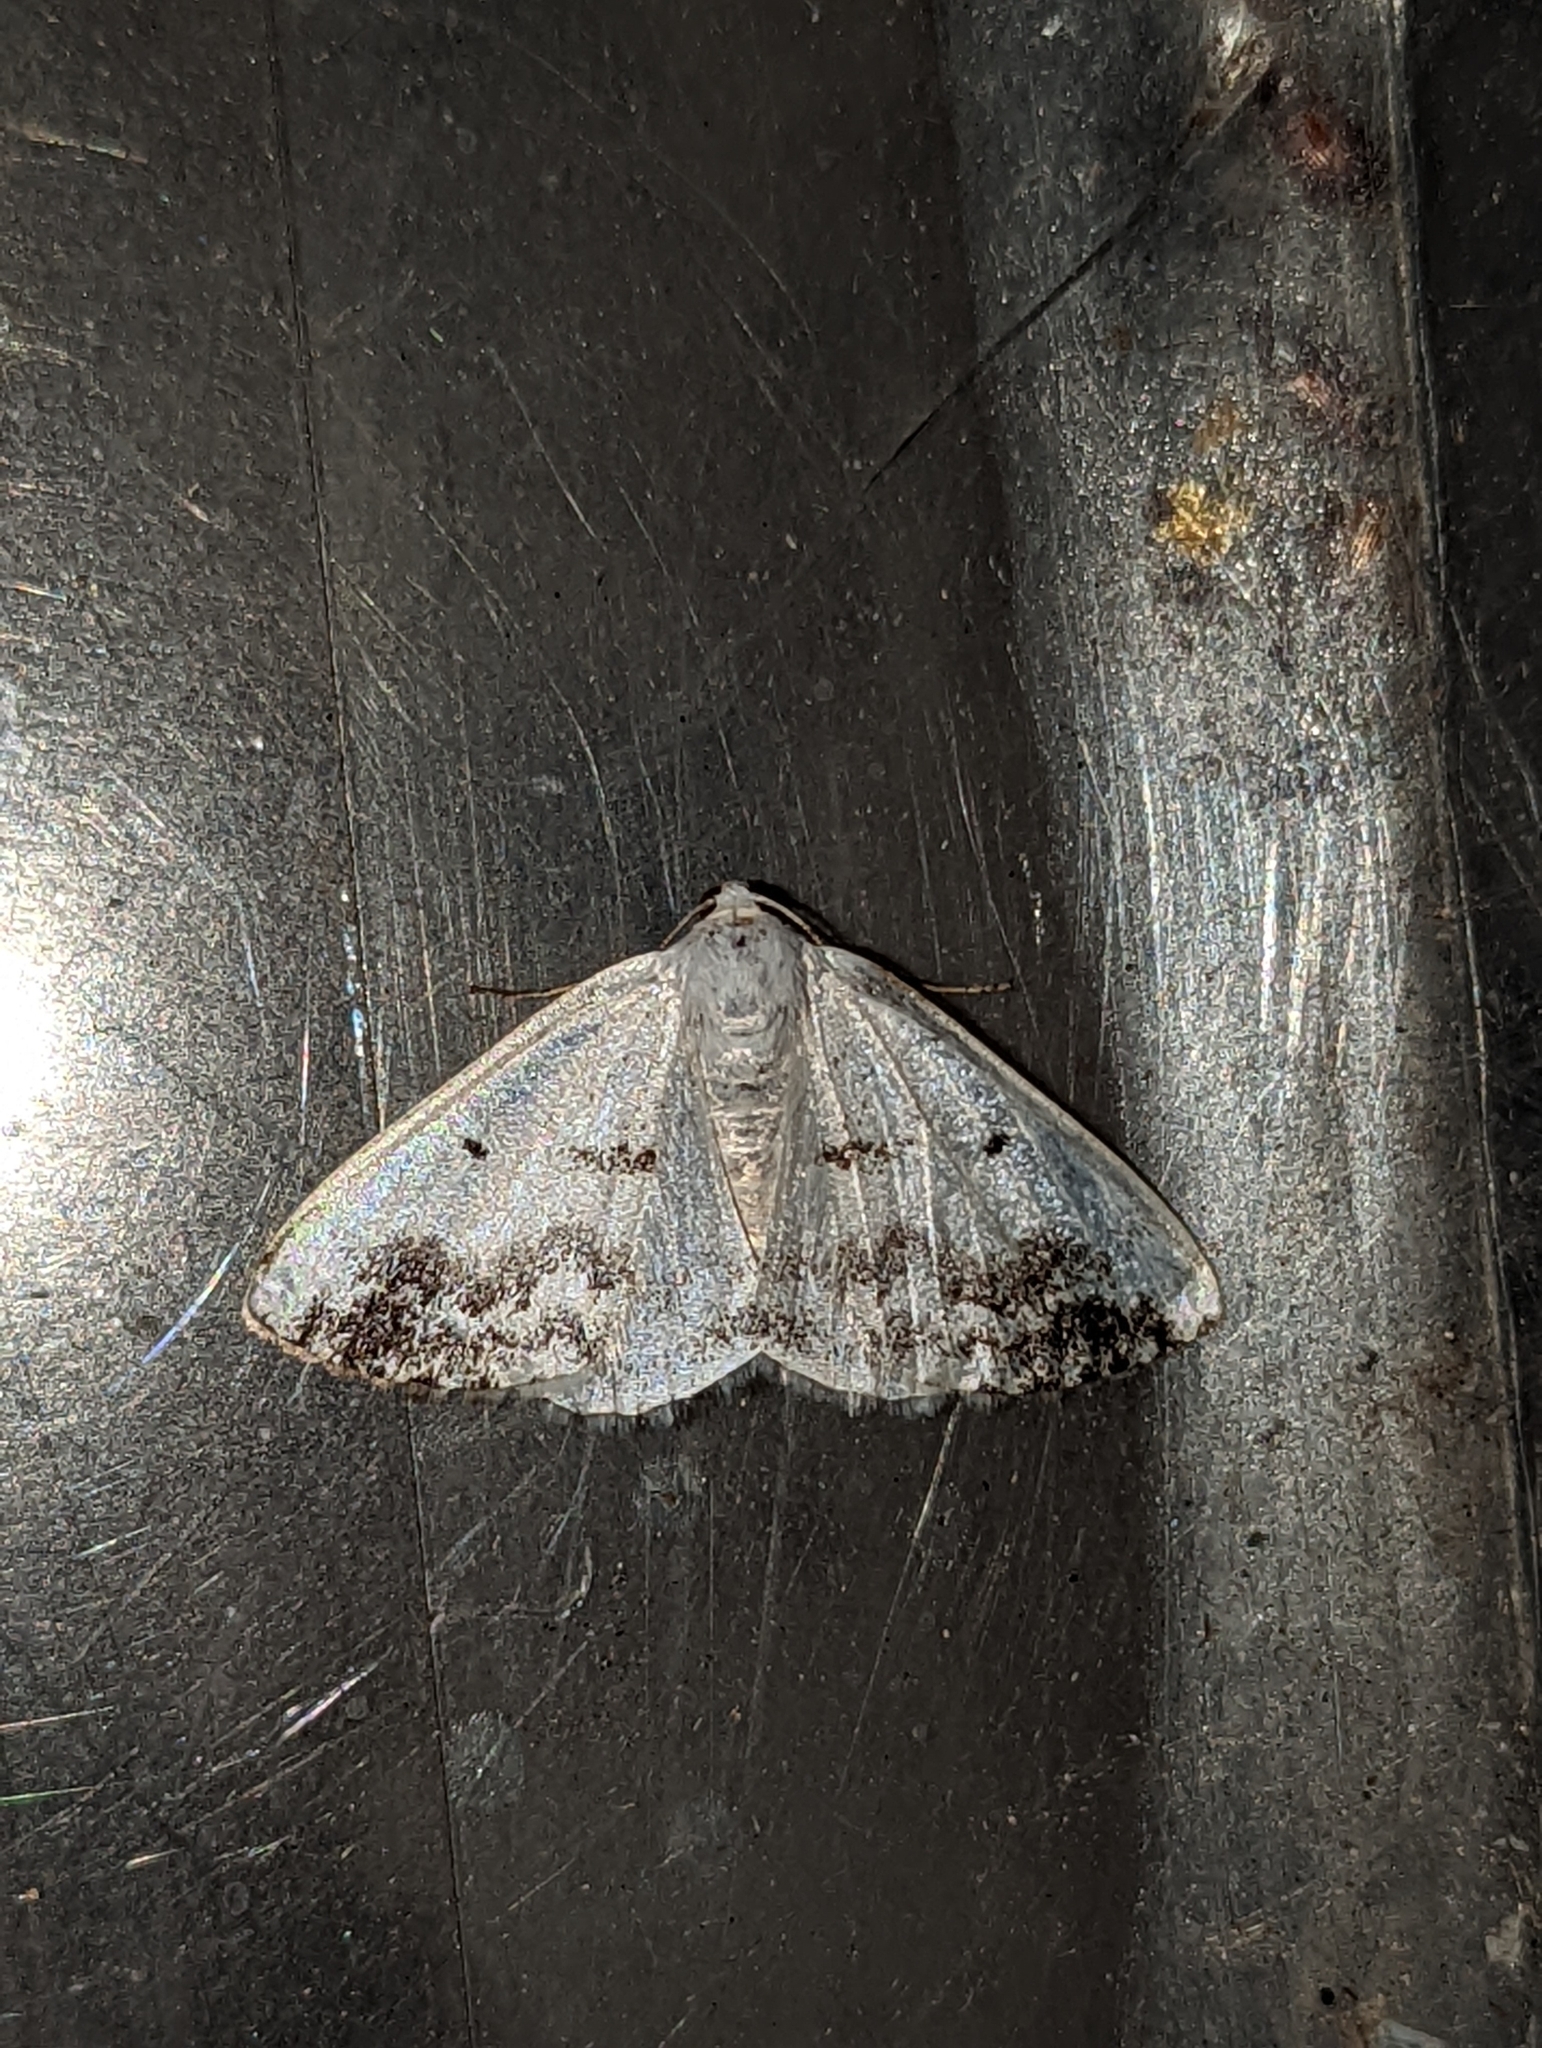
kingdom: Animalia
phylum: Arthropoda
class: Insecta
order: Lepidoptera
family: Geometridae
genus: Lomographa
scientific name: Lomographa temerata
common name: Clouded silver
